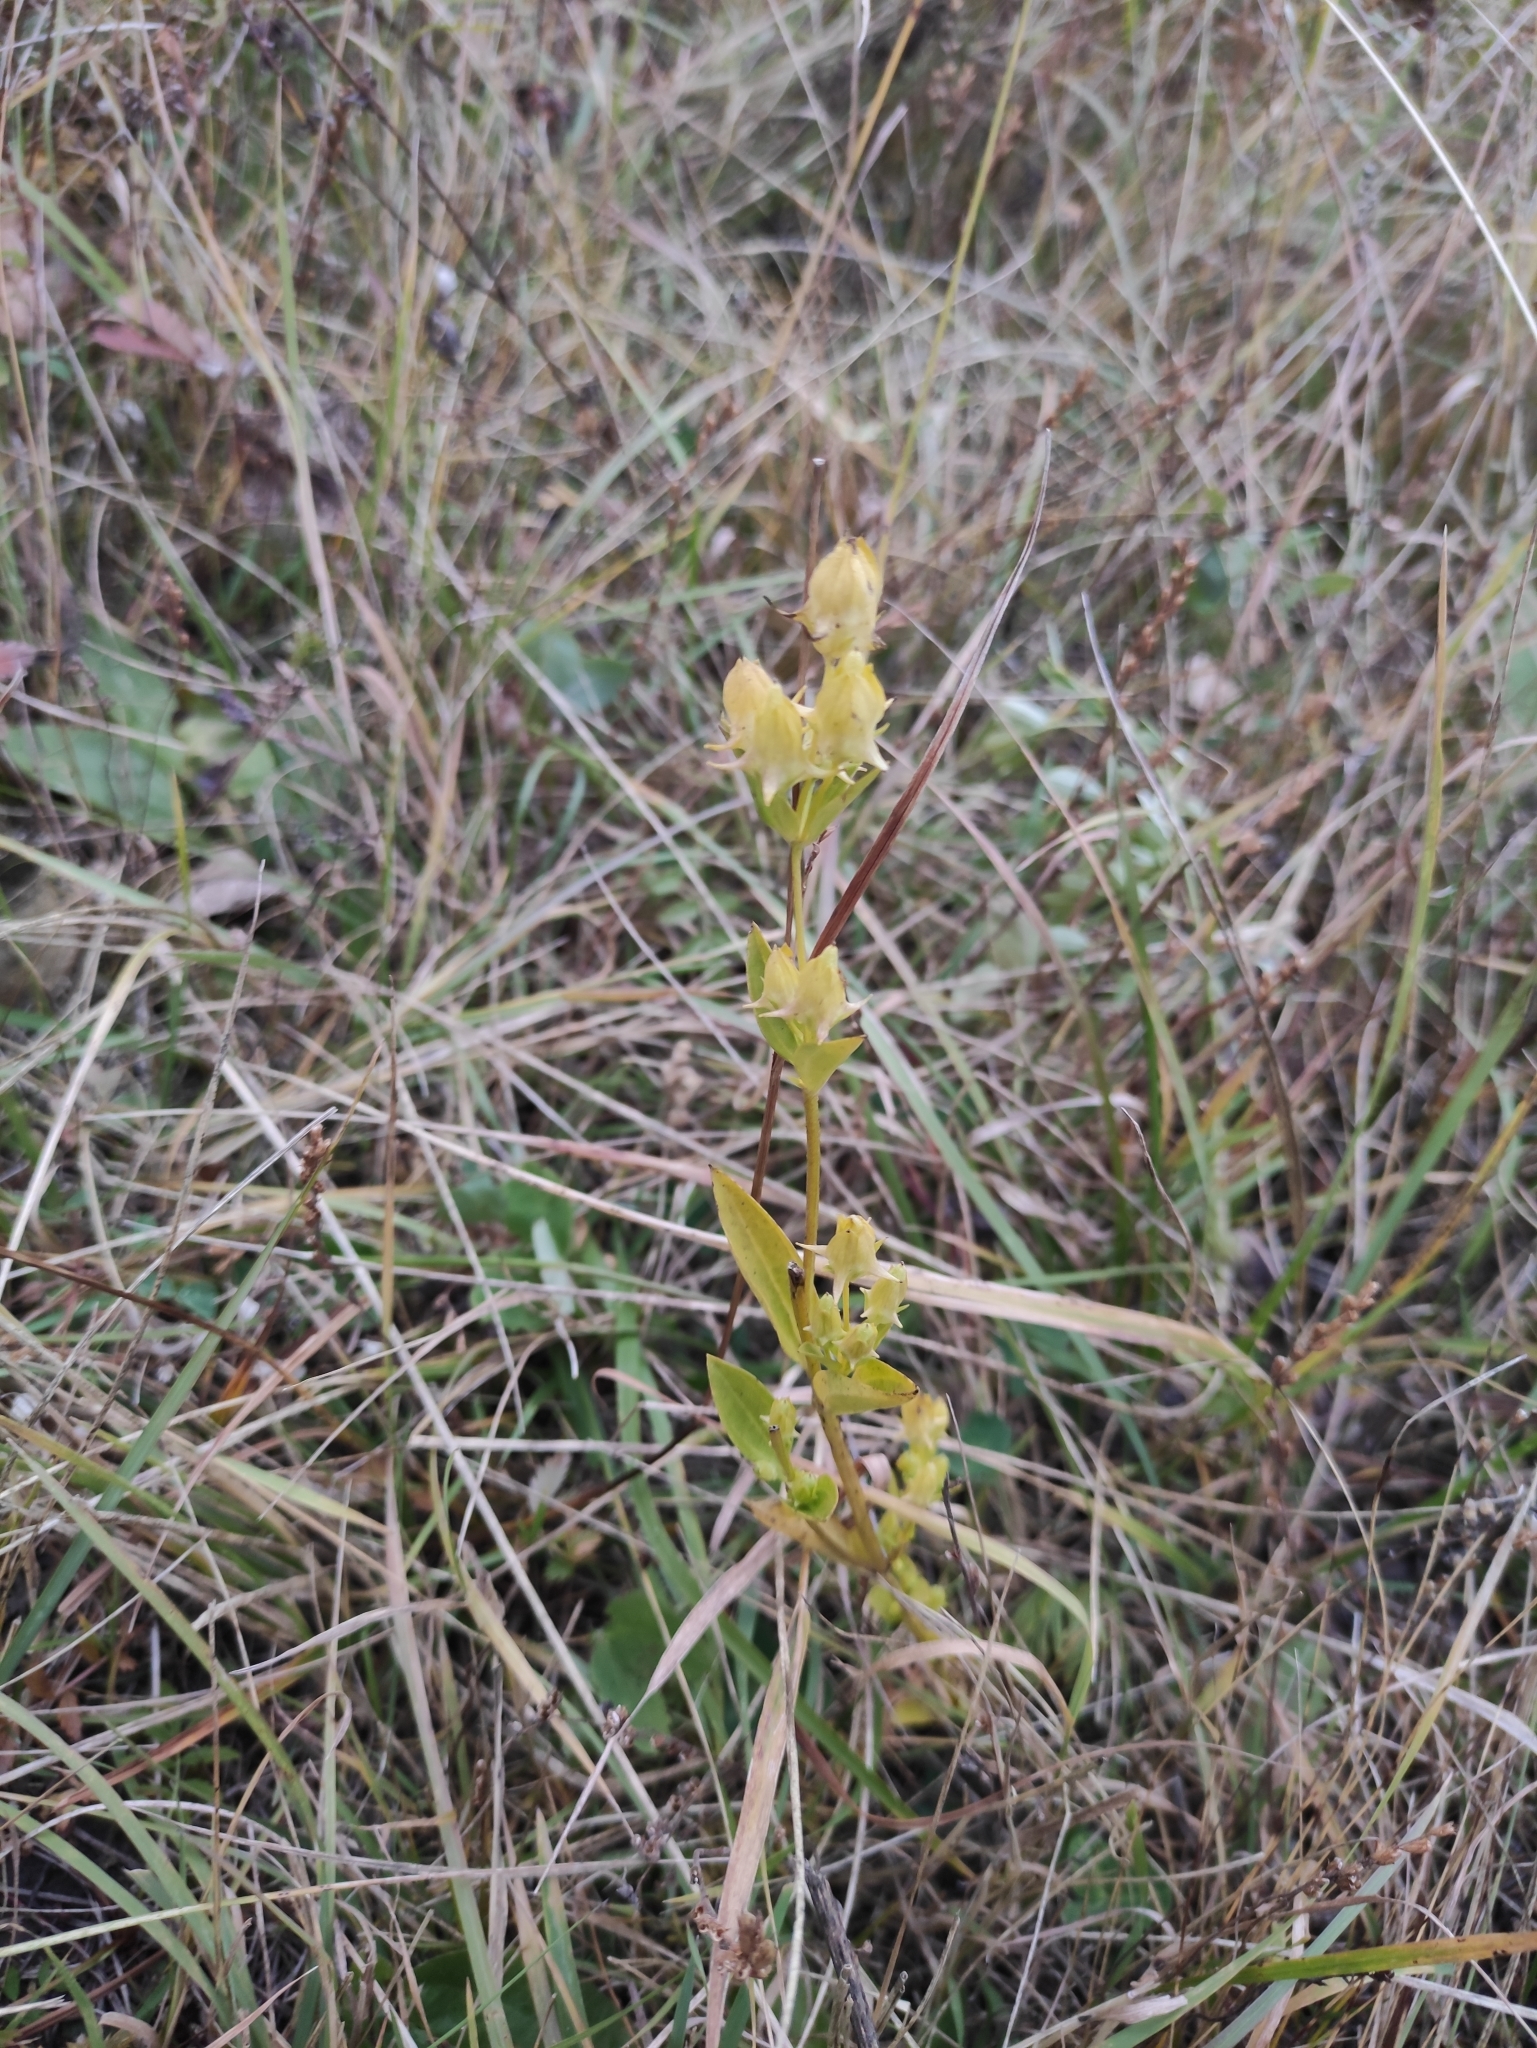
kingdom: Plantae
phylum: Tracheophyta
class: Magnoliopsida
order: Gentianales
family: Gentianaceae
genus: Halenia
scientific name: Halenia corniculata
